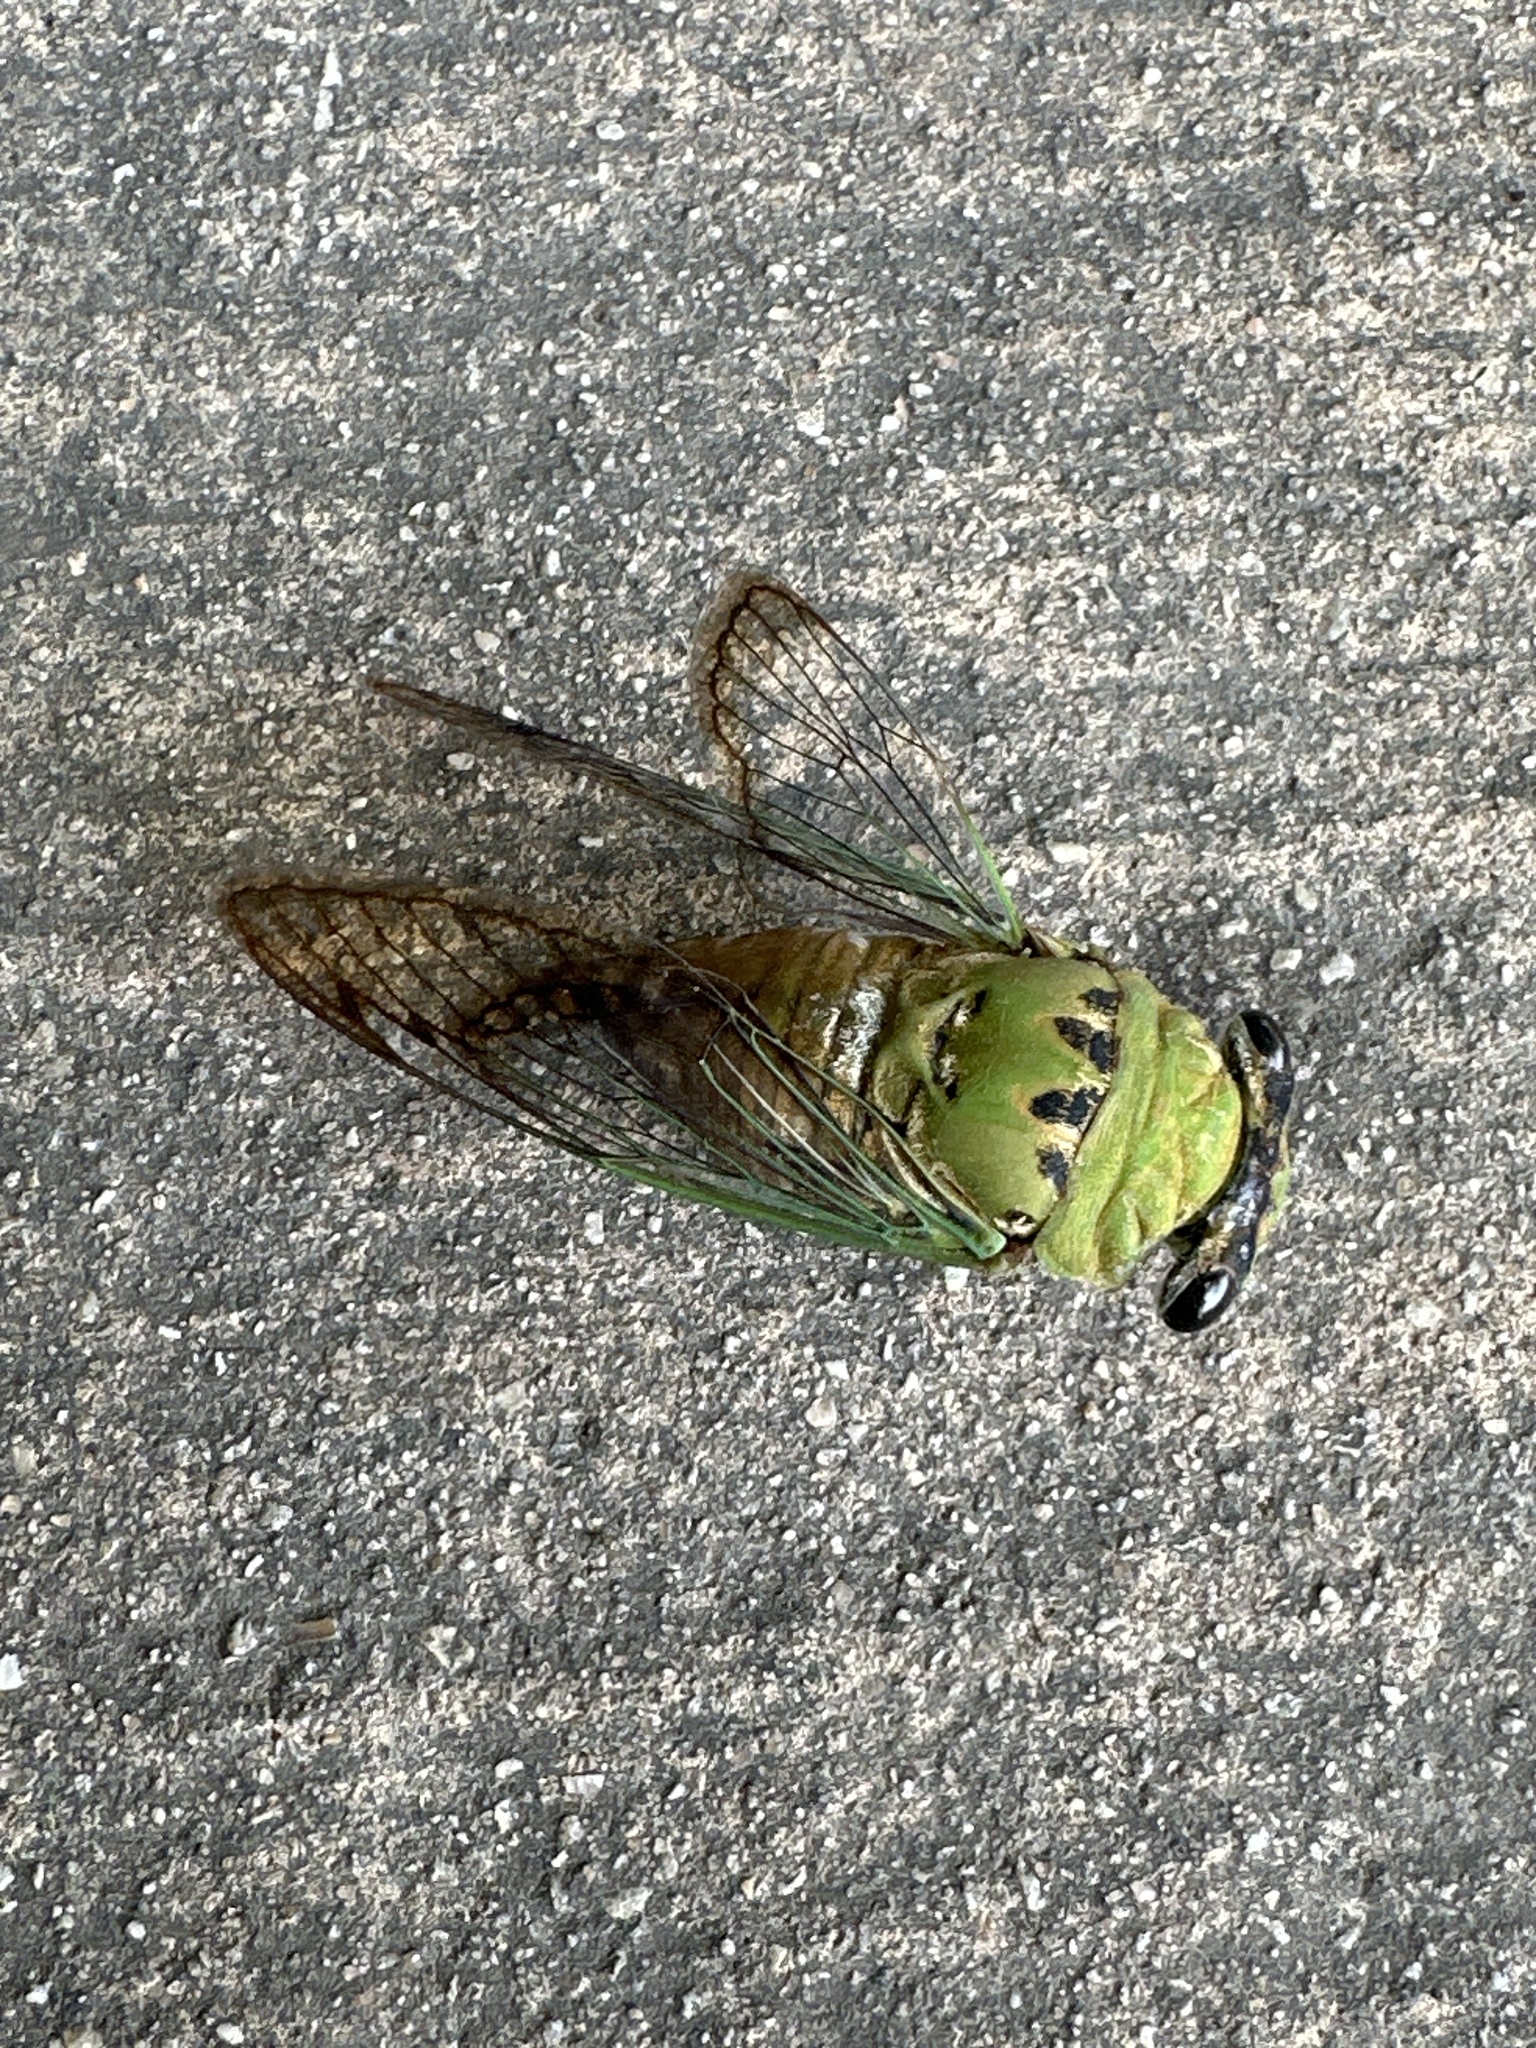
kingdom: Animalia
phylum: Arthropoda
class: Insecta
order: Hemiptera
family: Cicadidae
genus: Neotibicen
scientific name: Neotibicen superbus
